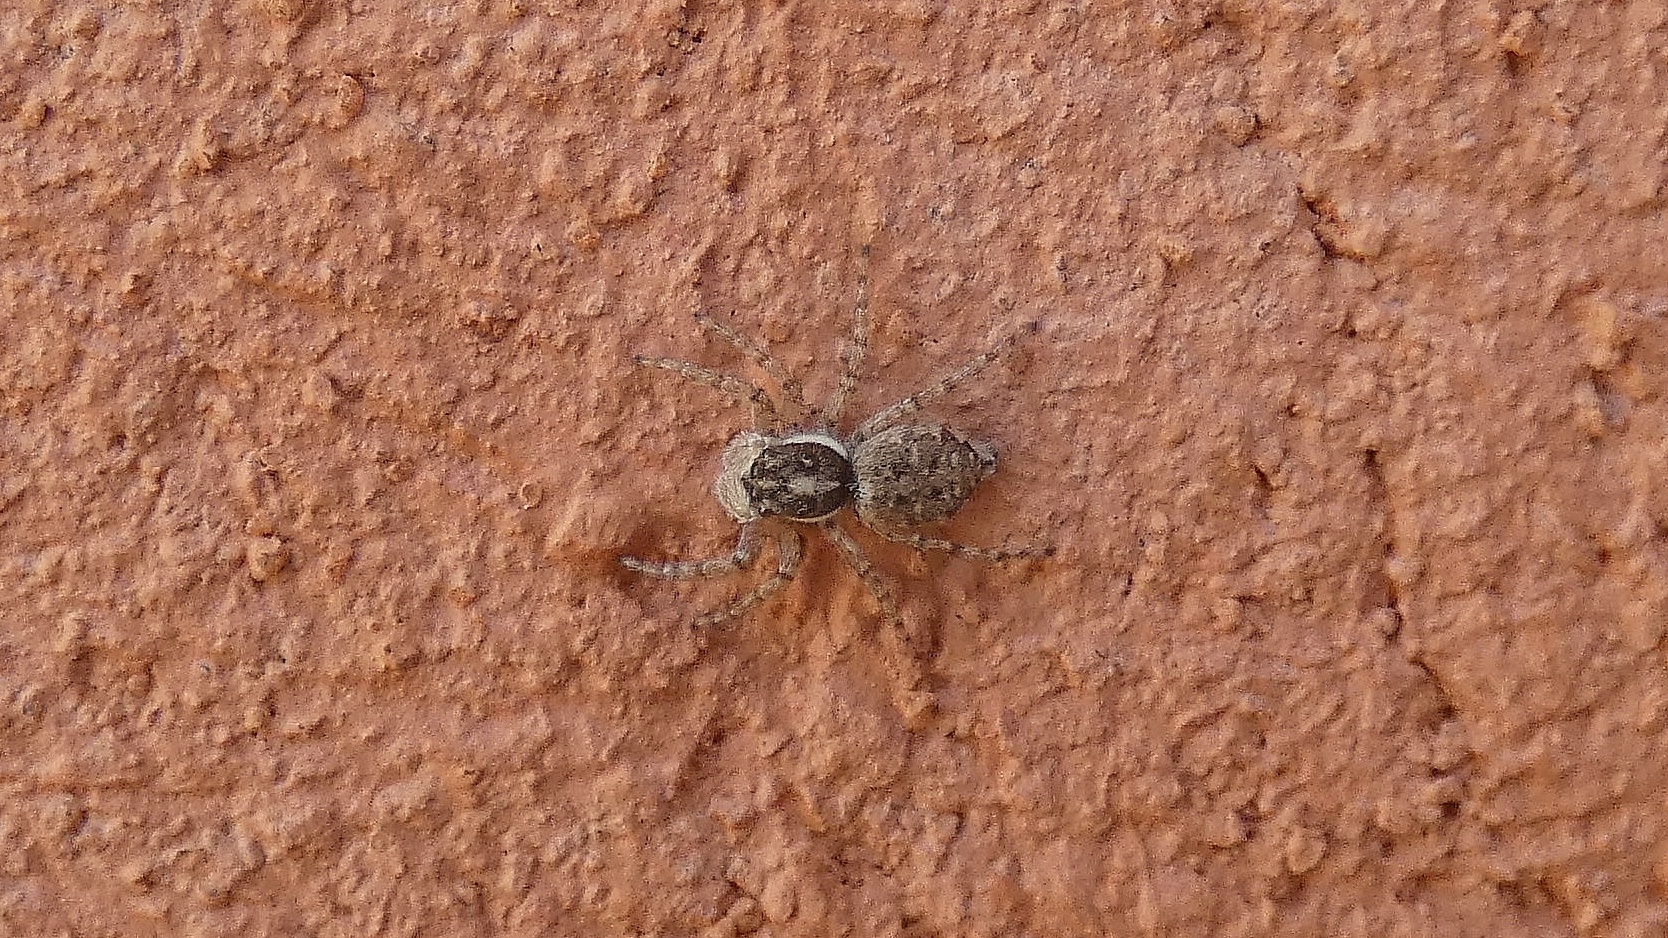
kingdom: Animalia
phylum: Arthropoda
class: Arachnida
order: Araneae
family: Salticidae
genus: Menemerus
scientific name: Menemerus semilimbatus
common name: Jumping spider
